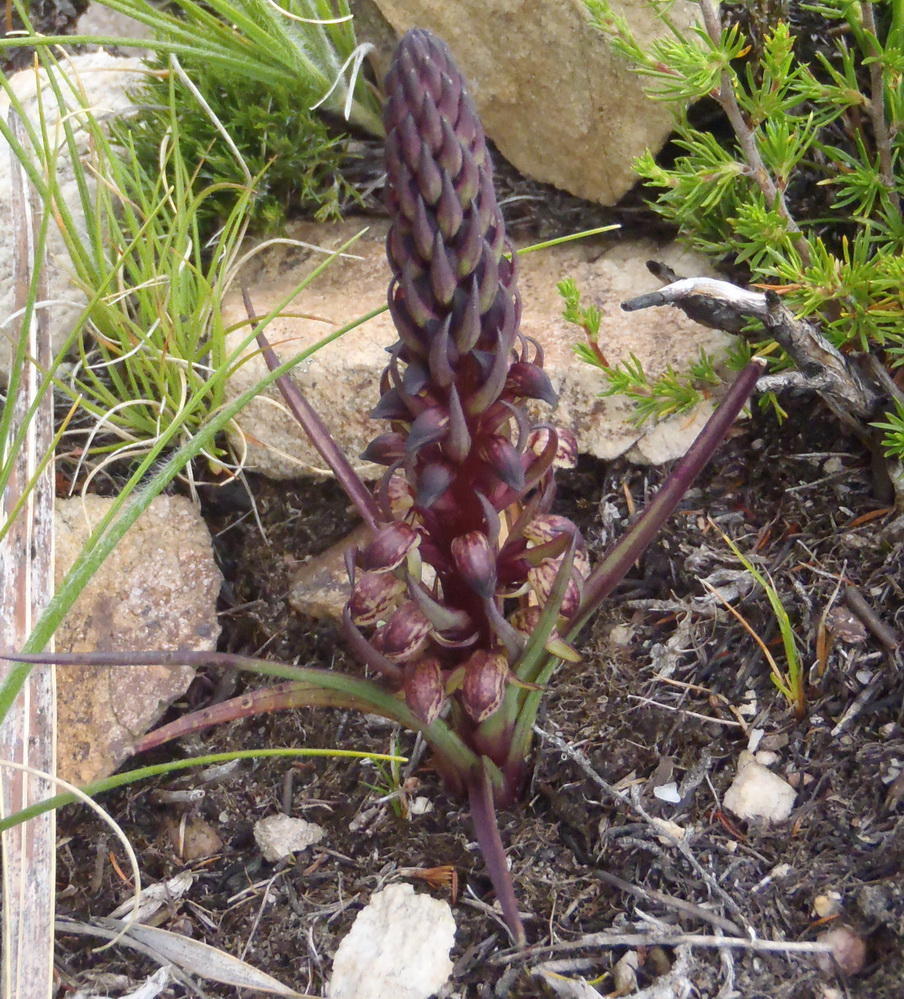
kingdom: Plantae
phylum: Tracheophyta
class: Liliopsida
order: Asparagales
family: Orchidaceae
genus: Disa
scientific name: Disa neglecta
